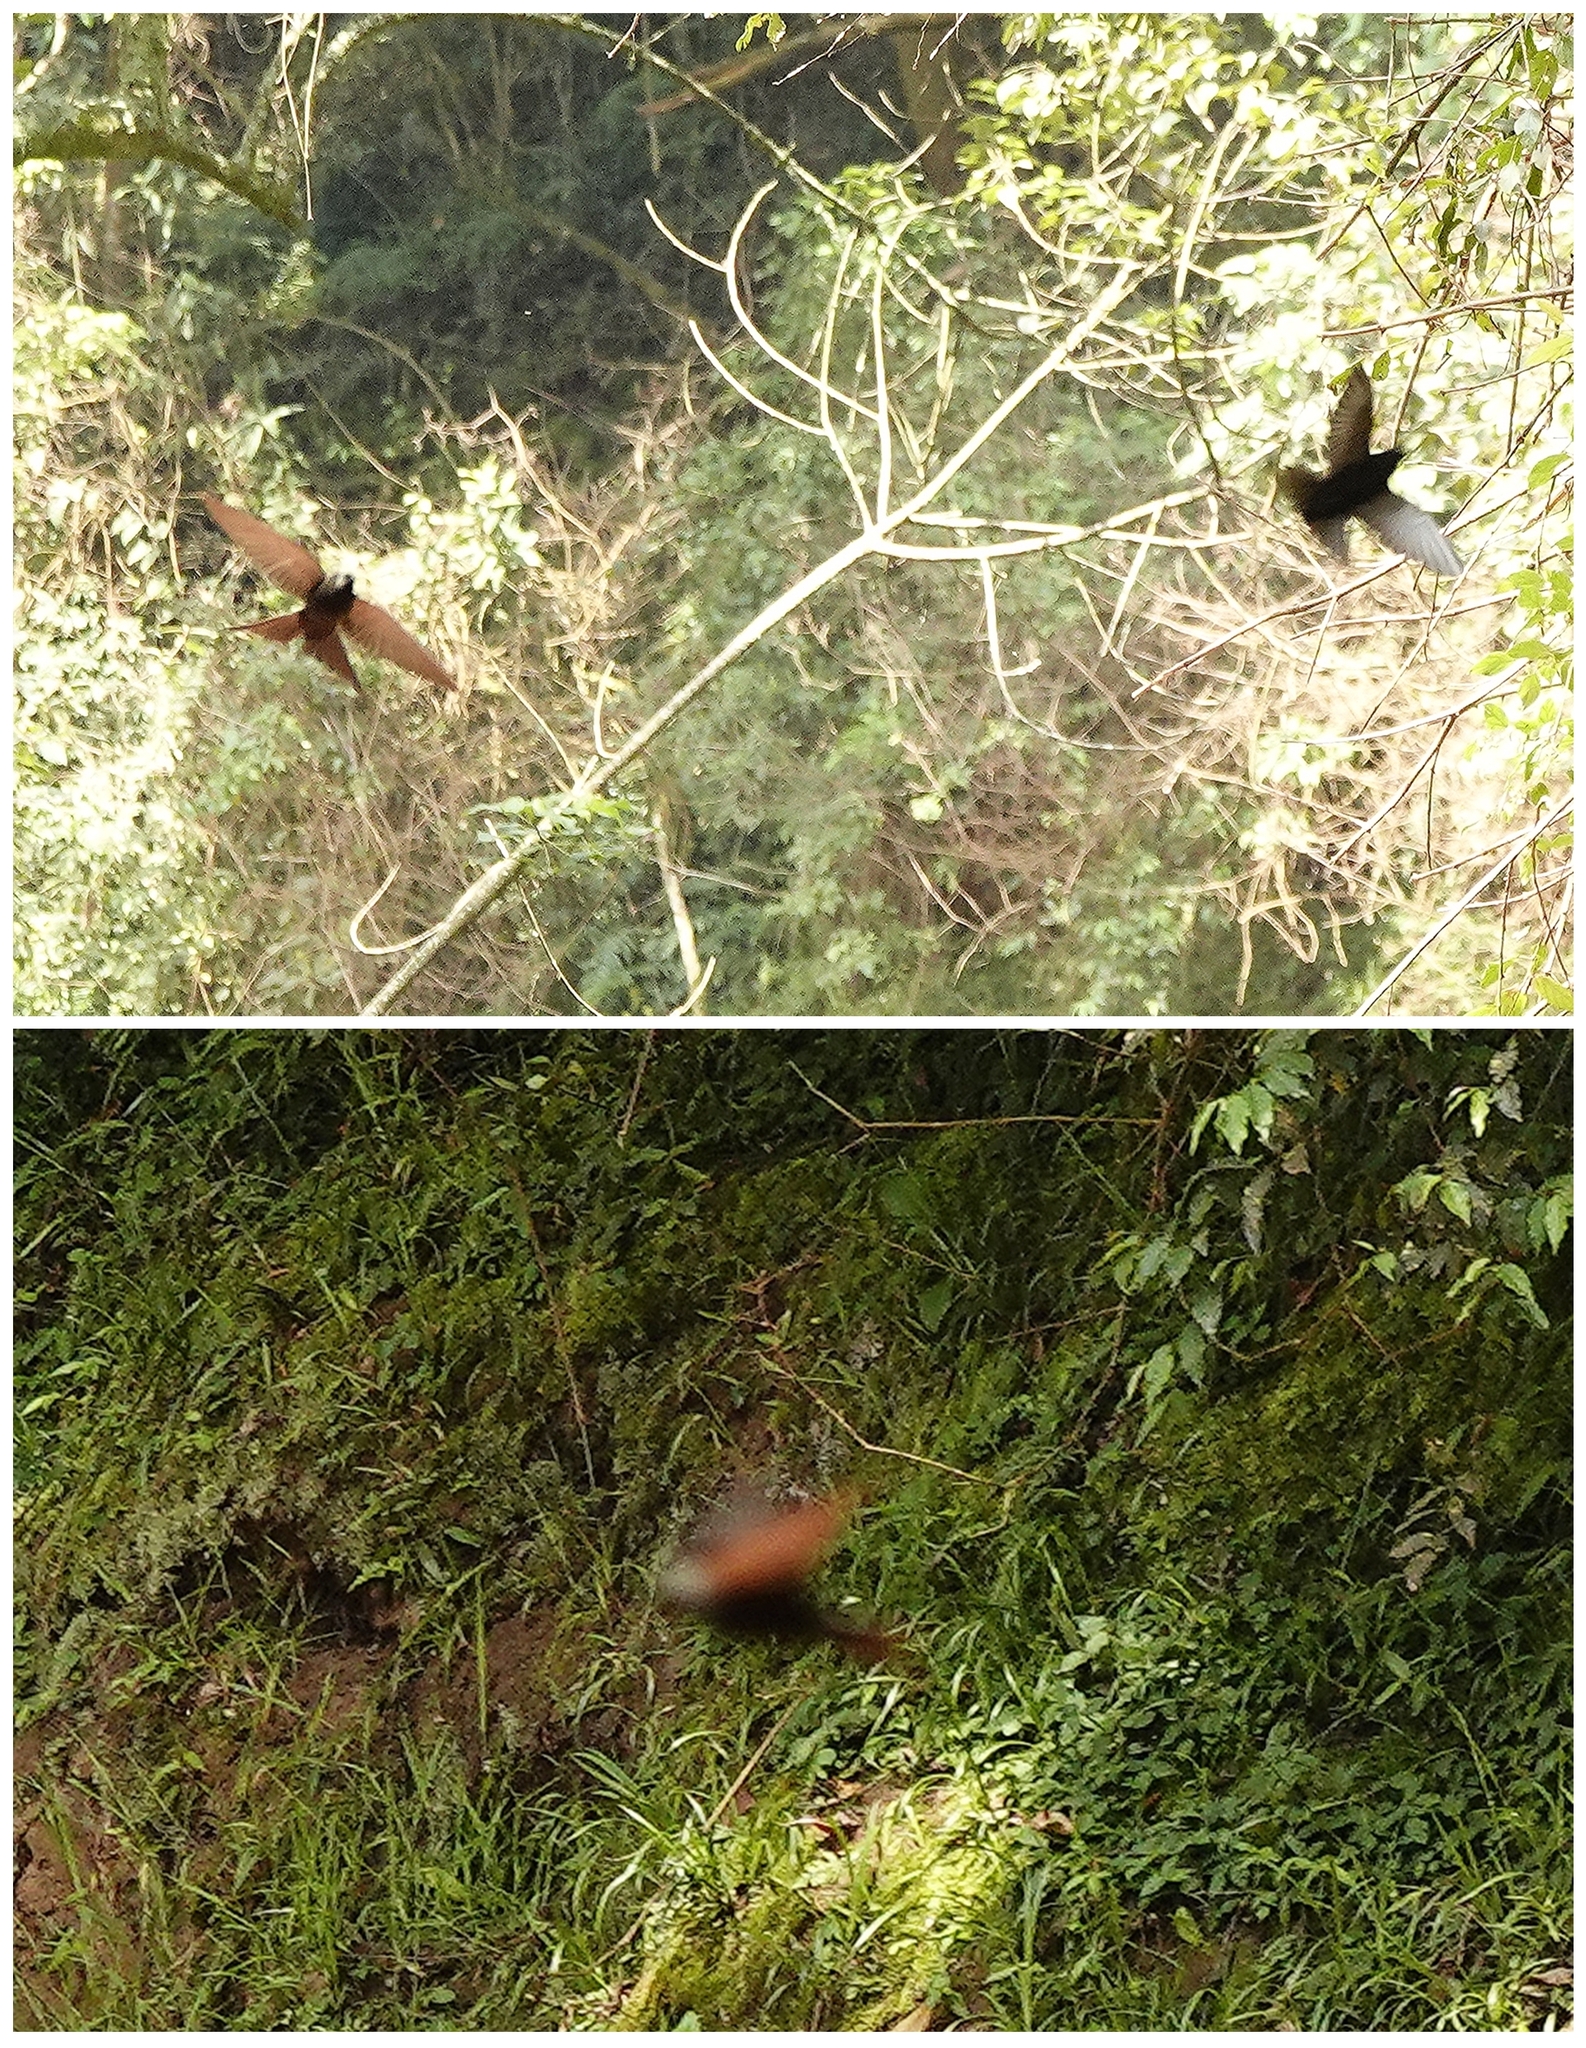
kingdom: Animalia
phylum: Chordata
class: Aves
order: Passeriformes
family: Hirundinidae
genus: Psalidoprocne
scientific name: Psalidoprocne pristoptera
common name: Black saw-wing
